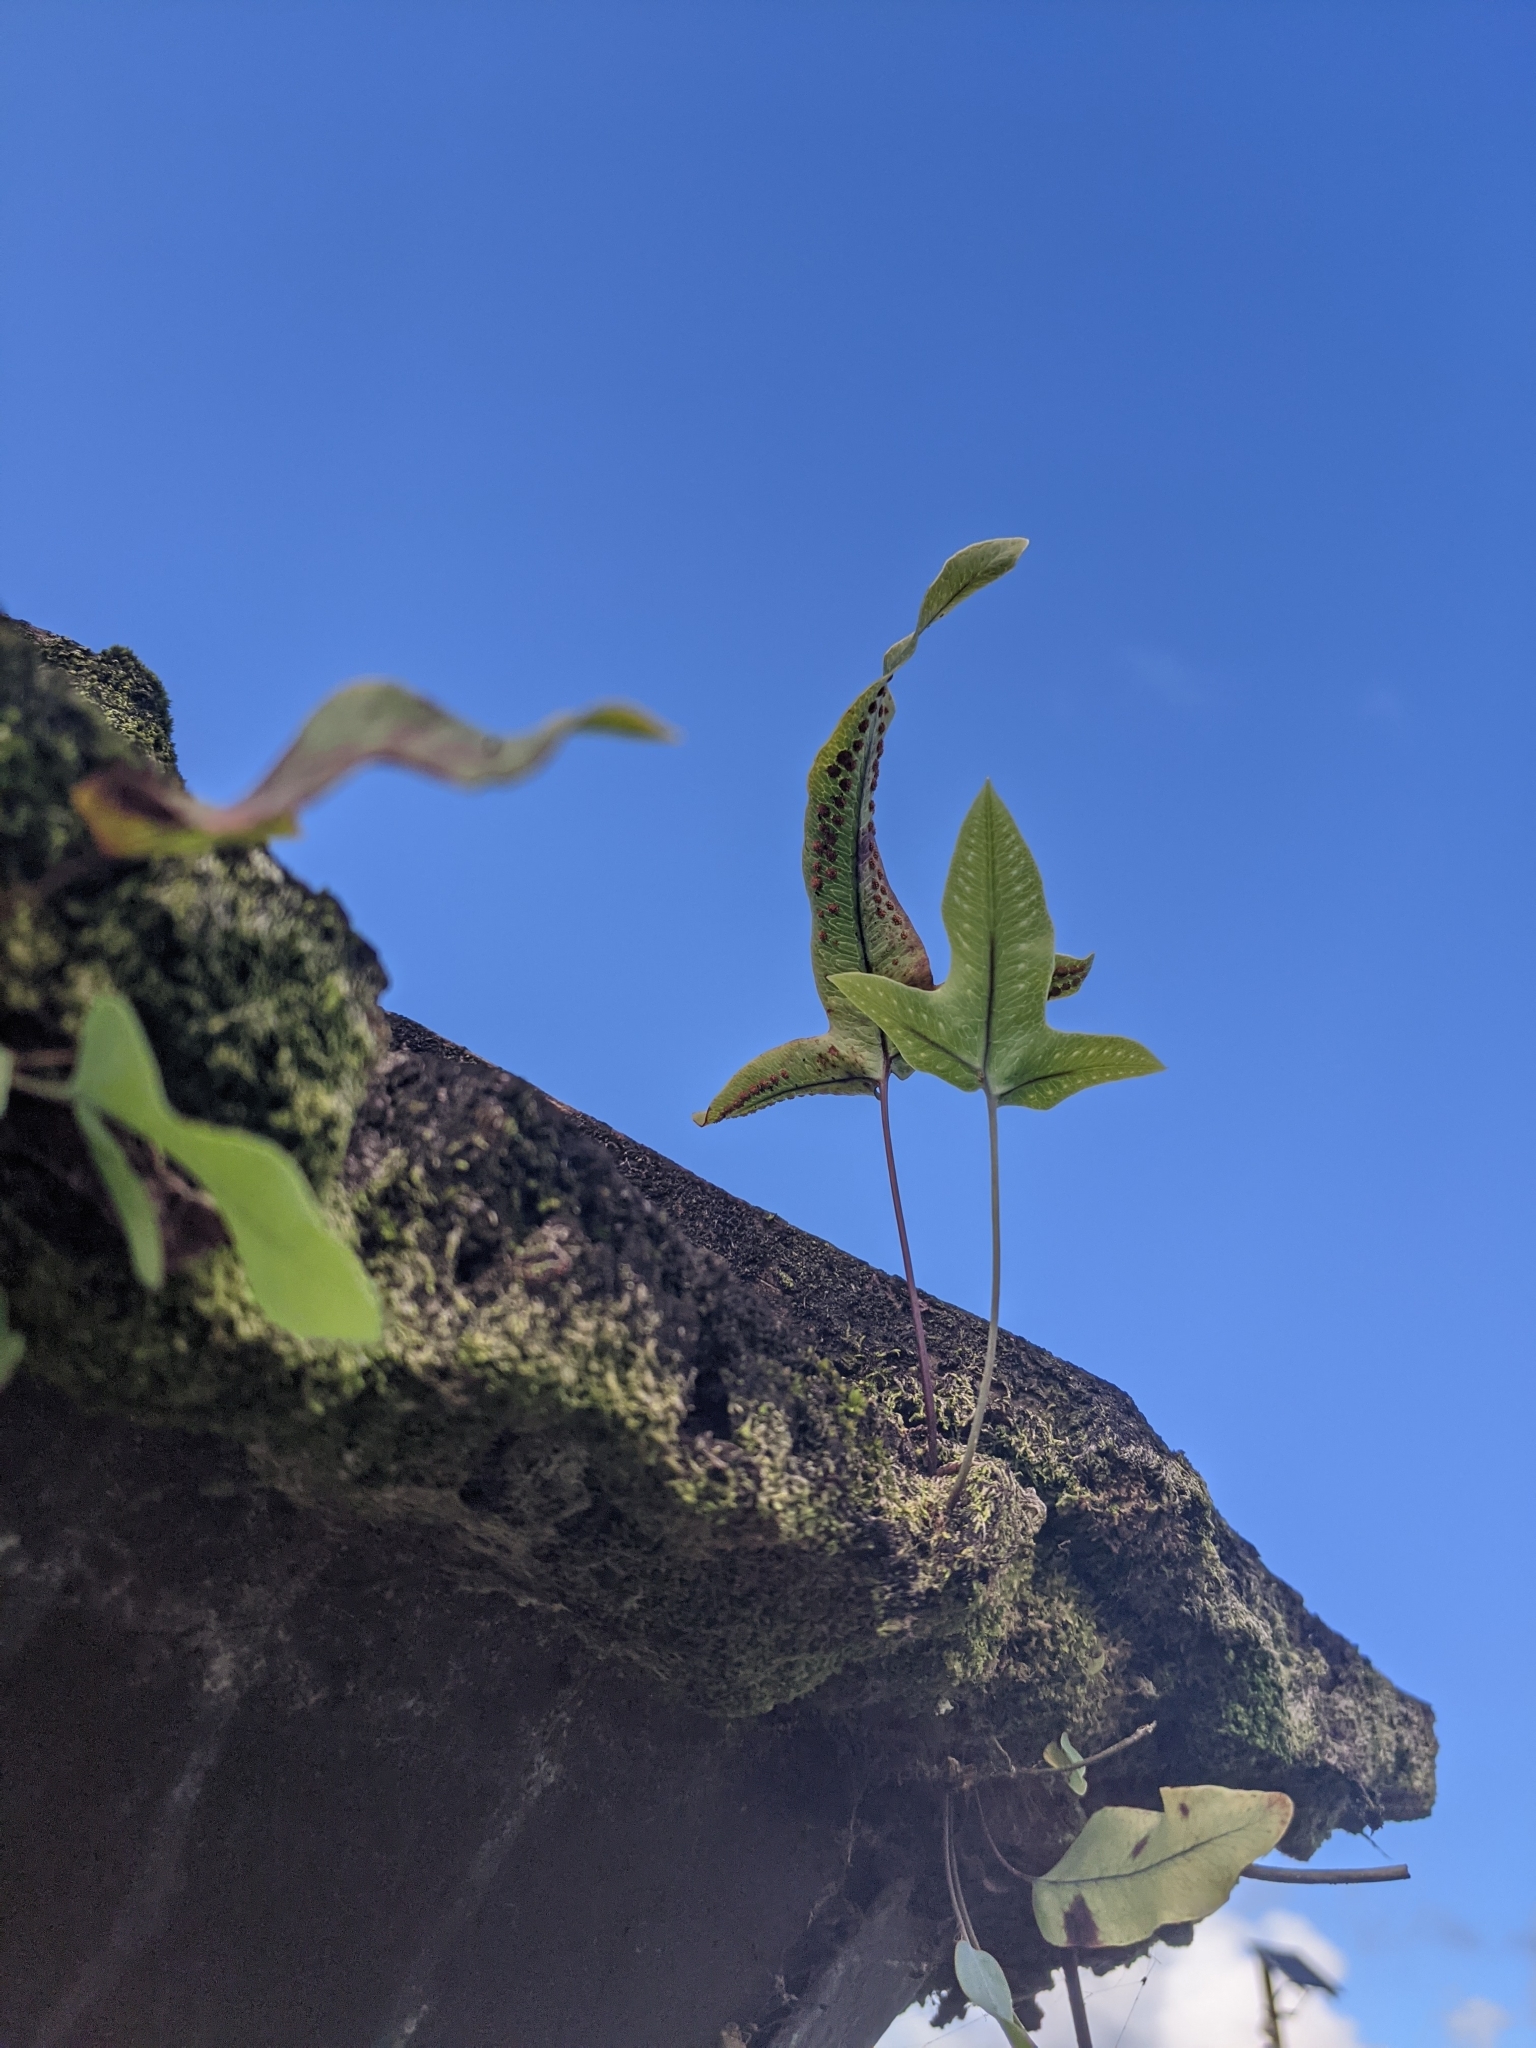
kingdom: Plantae
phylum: Tracheophyta
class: Polypodiopsida
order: Polypodiales
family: Polypodiaceae
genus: Phlebodium
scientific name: Phlebodium aureum
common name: Gold-foot fern
